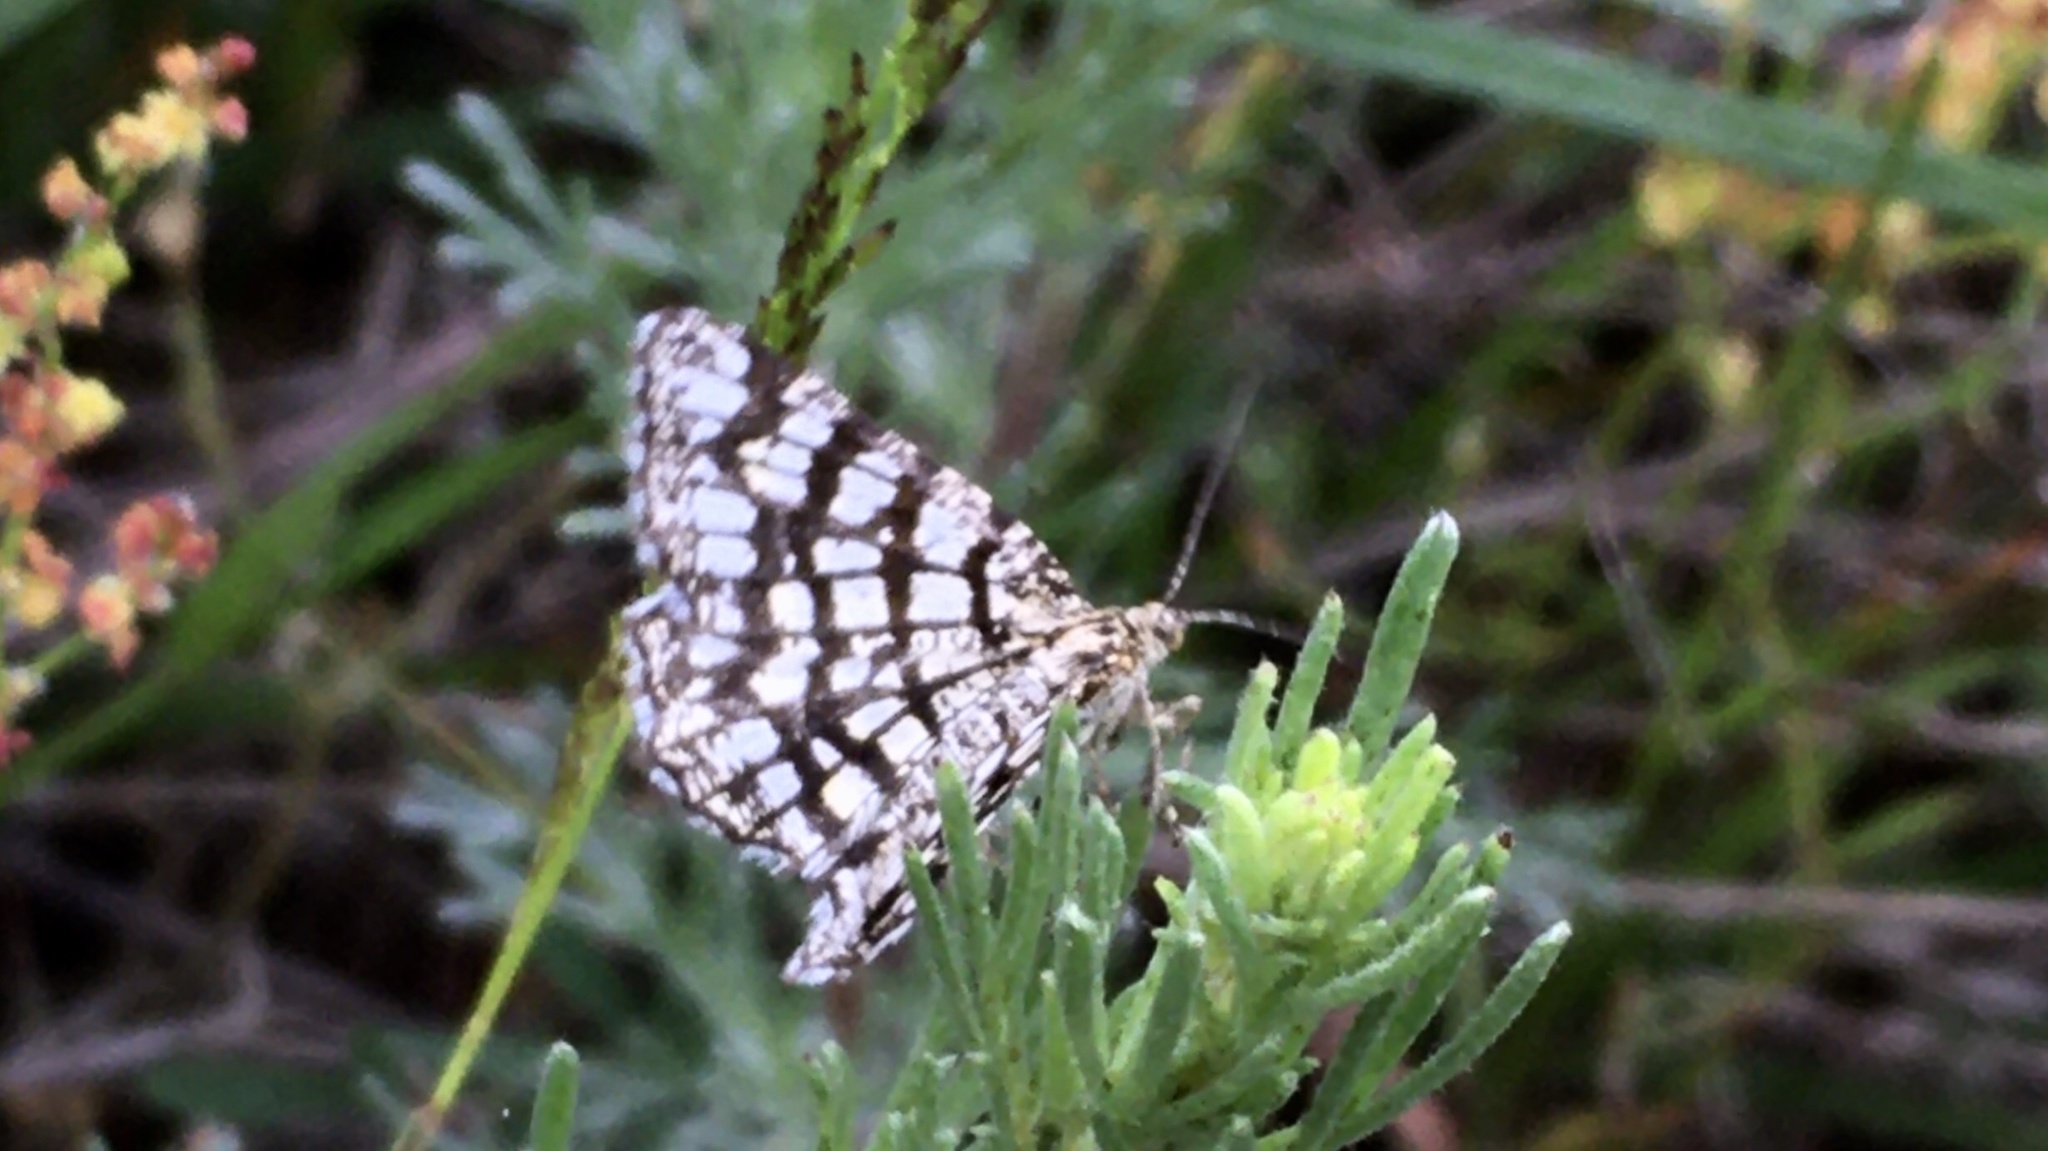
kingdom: Animalia
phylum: Arthropoda
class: Insecta
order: Lepidoptera
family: Geometridae
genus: Chiasmia
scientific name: Chiasmia clathrata
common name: Latticed heath
